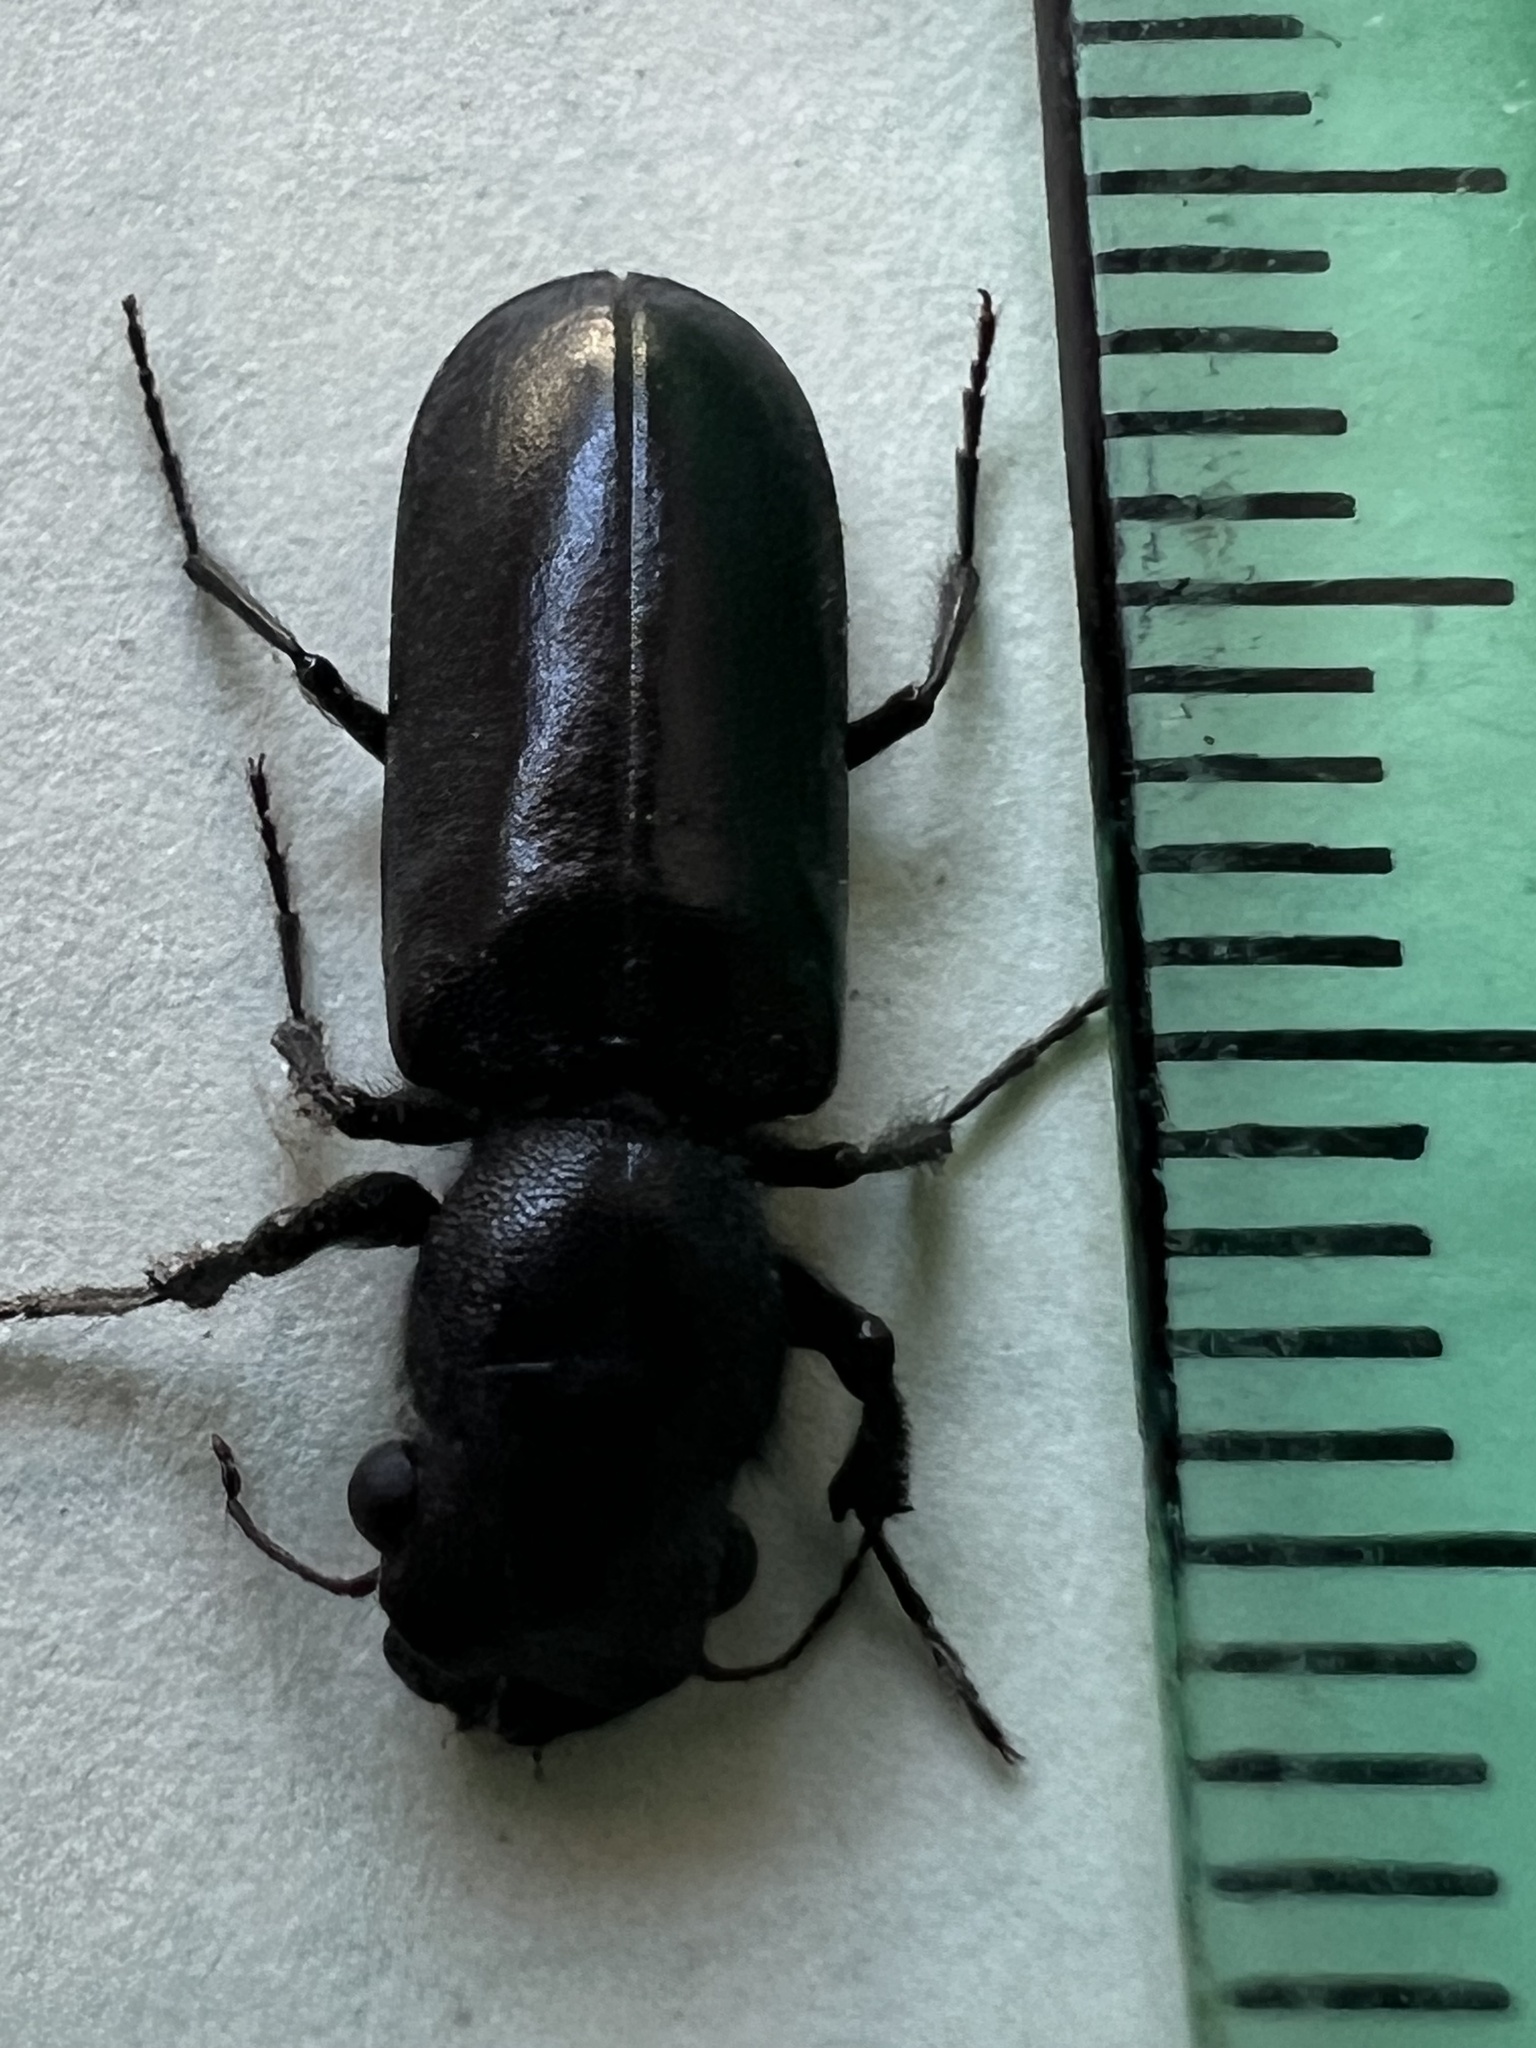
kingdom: Animalia
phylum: Arthropoda
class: Insecta
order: Coleoptera
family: Bostrichidae
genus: Polycaon
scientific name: Polycaon stoutii
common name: Powderpost beetle
